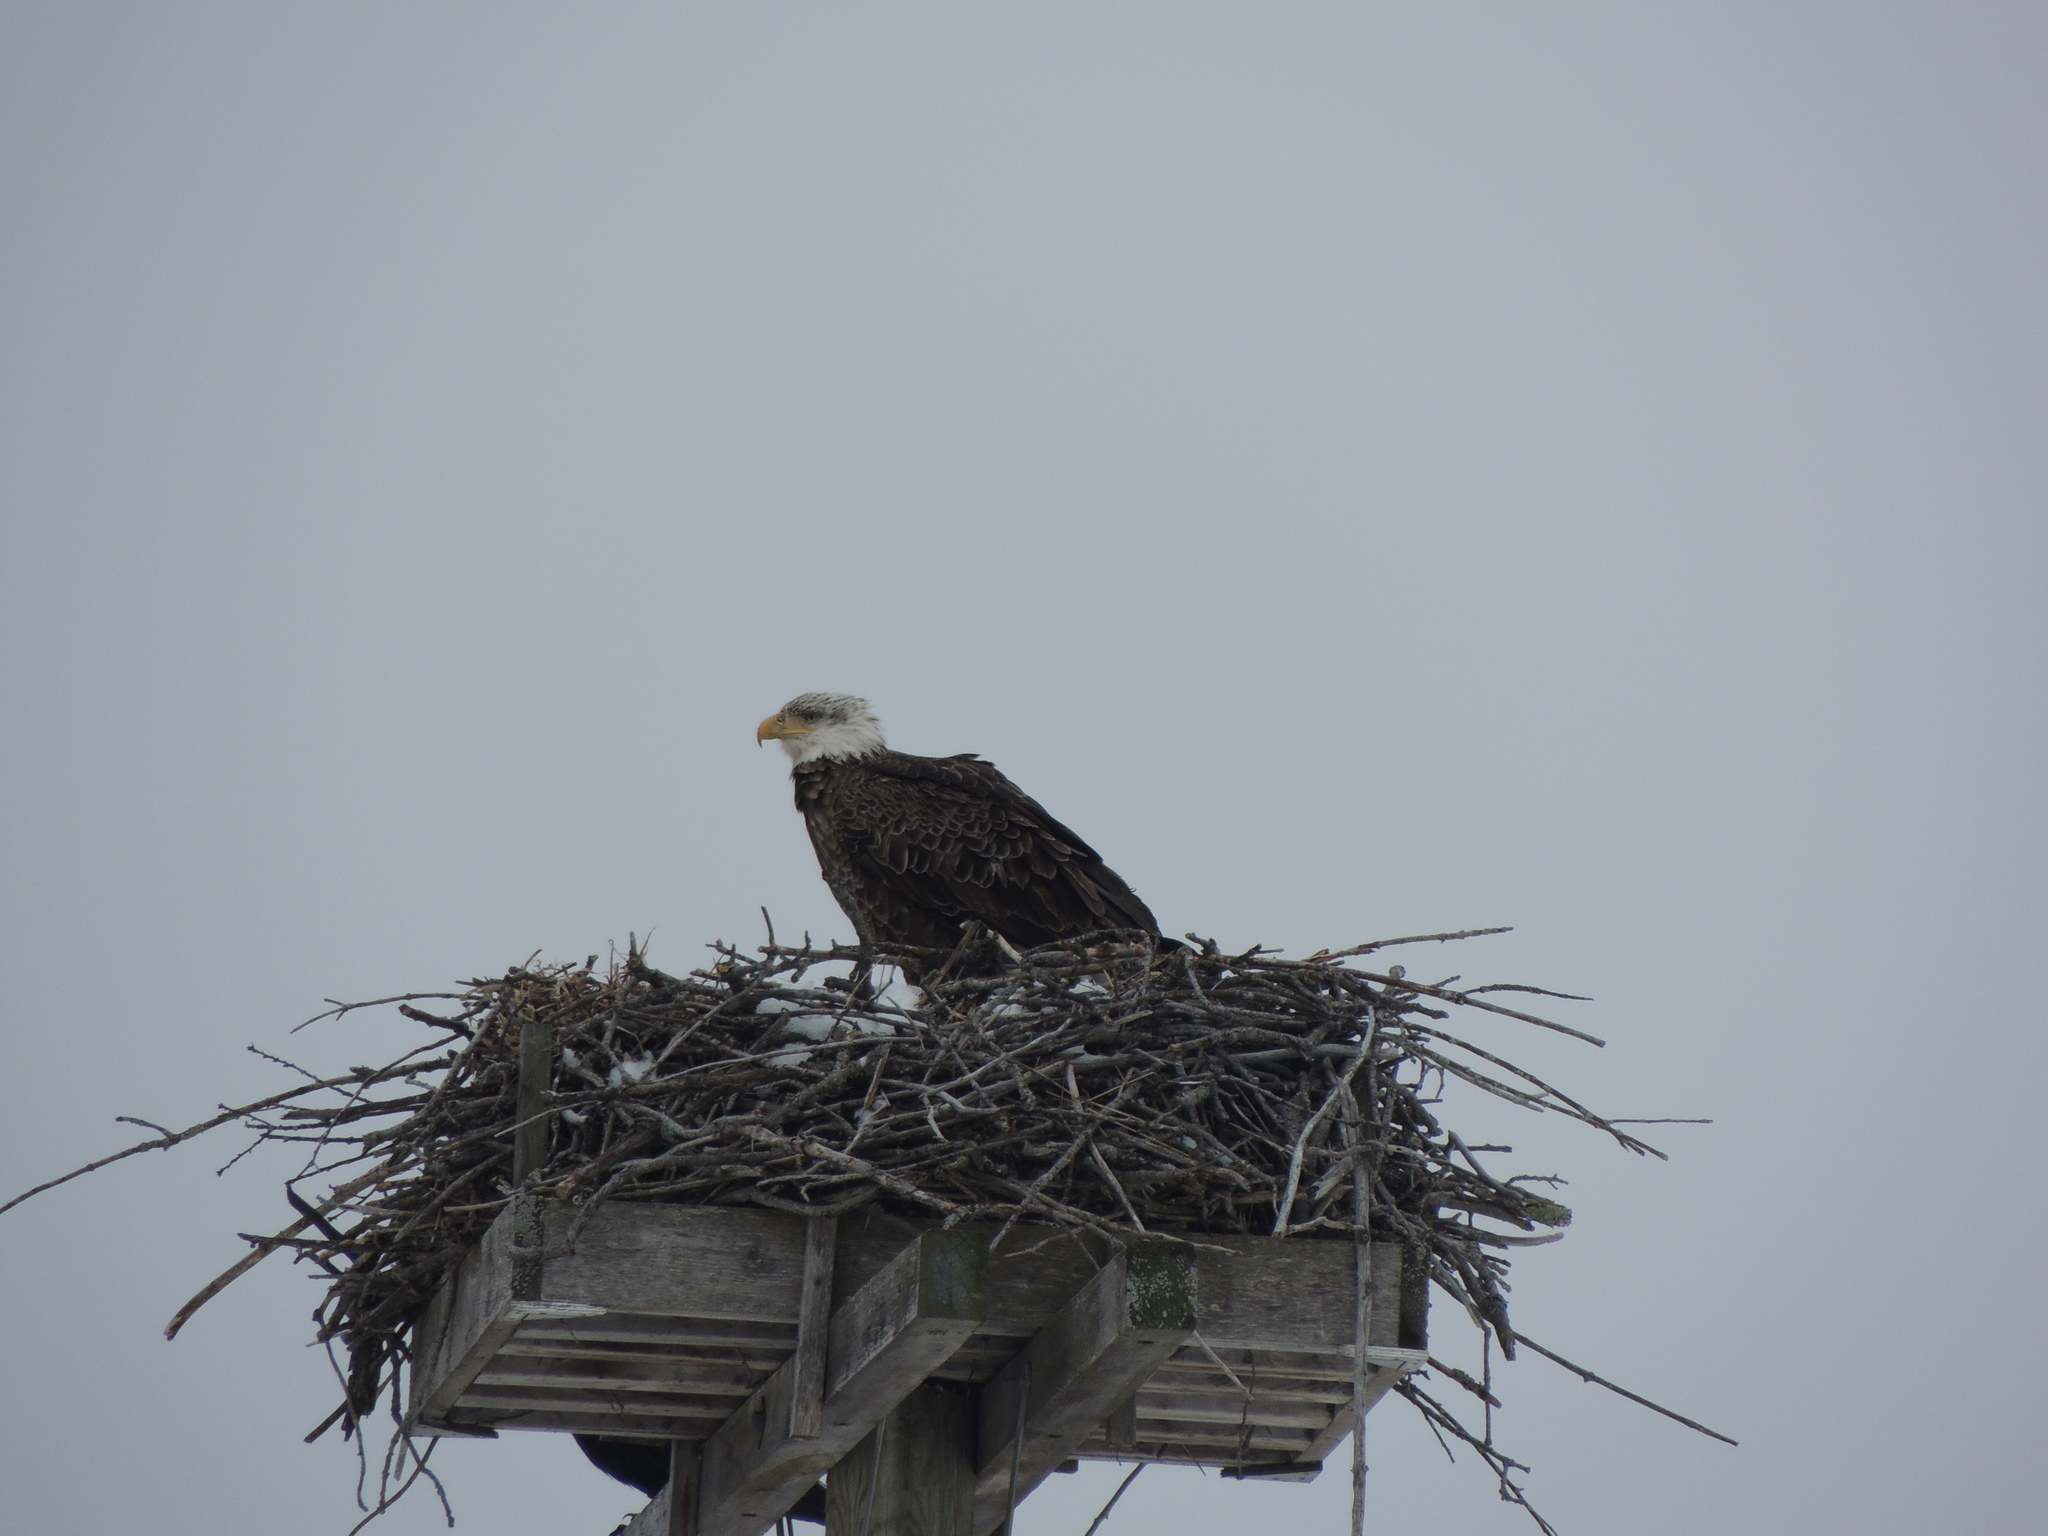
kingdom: Animalia
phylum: Chordata
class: Aves
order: Accipitriformes
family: Accipitridae
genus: Haliaeetus
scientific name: Haliaeetus leucocephalus
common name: Bald eagle
